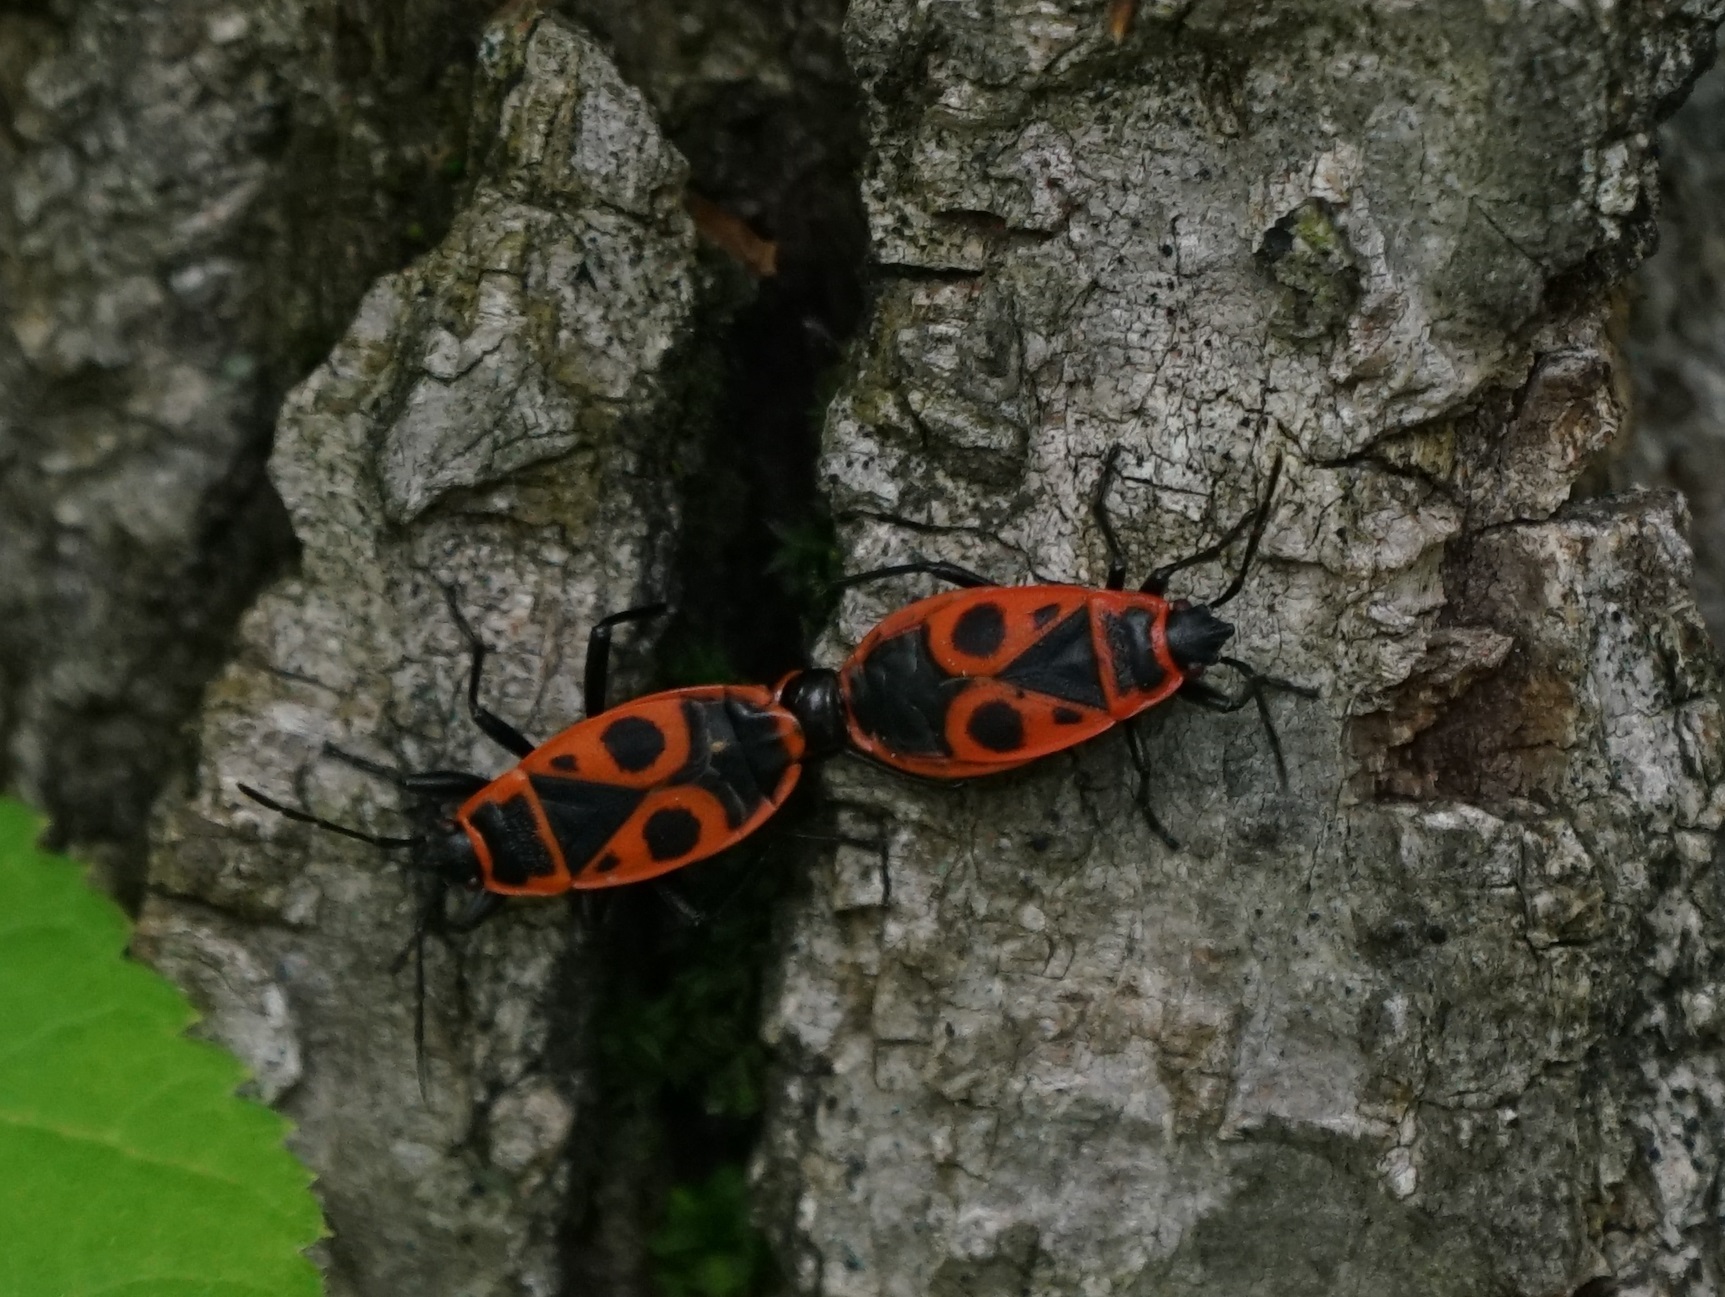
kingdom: Animalia
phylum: Arthropoda
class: Insecta
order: Hemiptera
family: Pyrrhocoridae
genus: Pyrrhocoris
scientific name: Pyrrhocoris apterus
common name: Firebug
